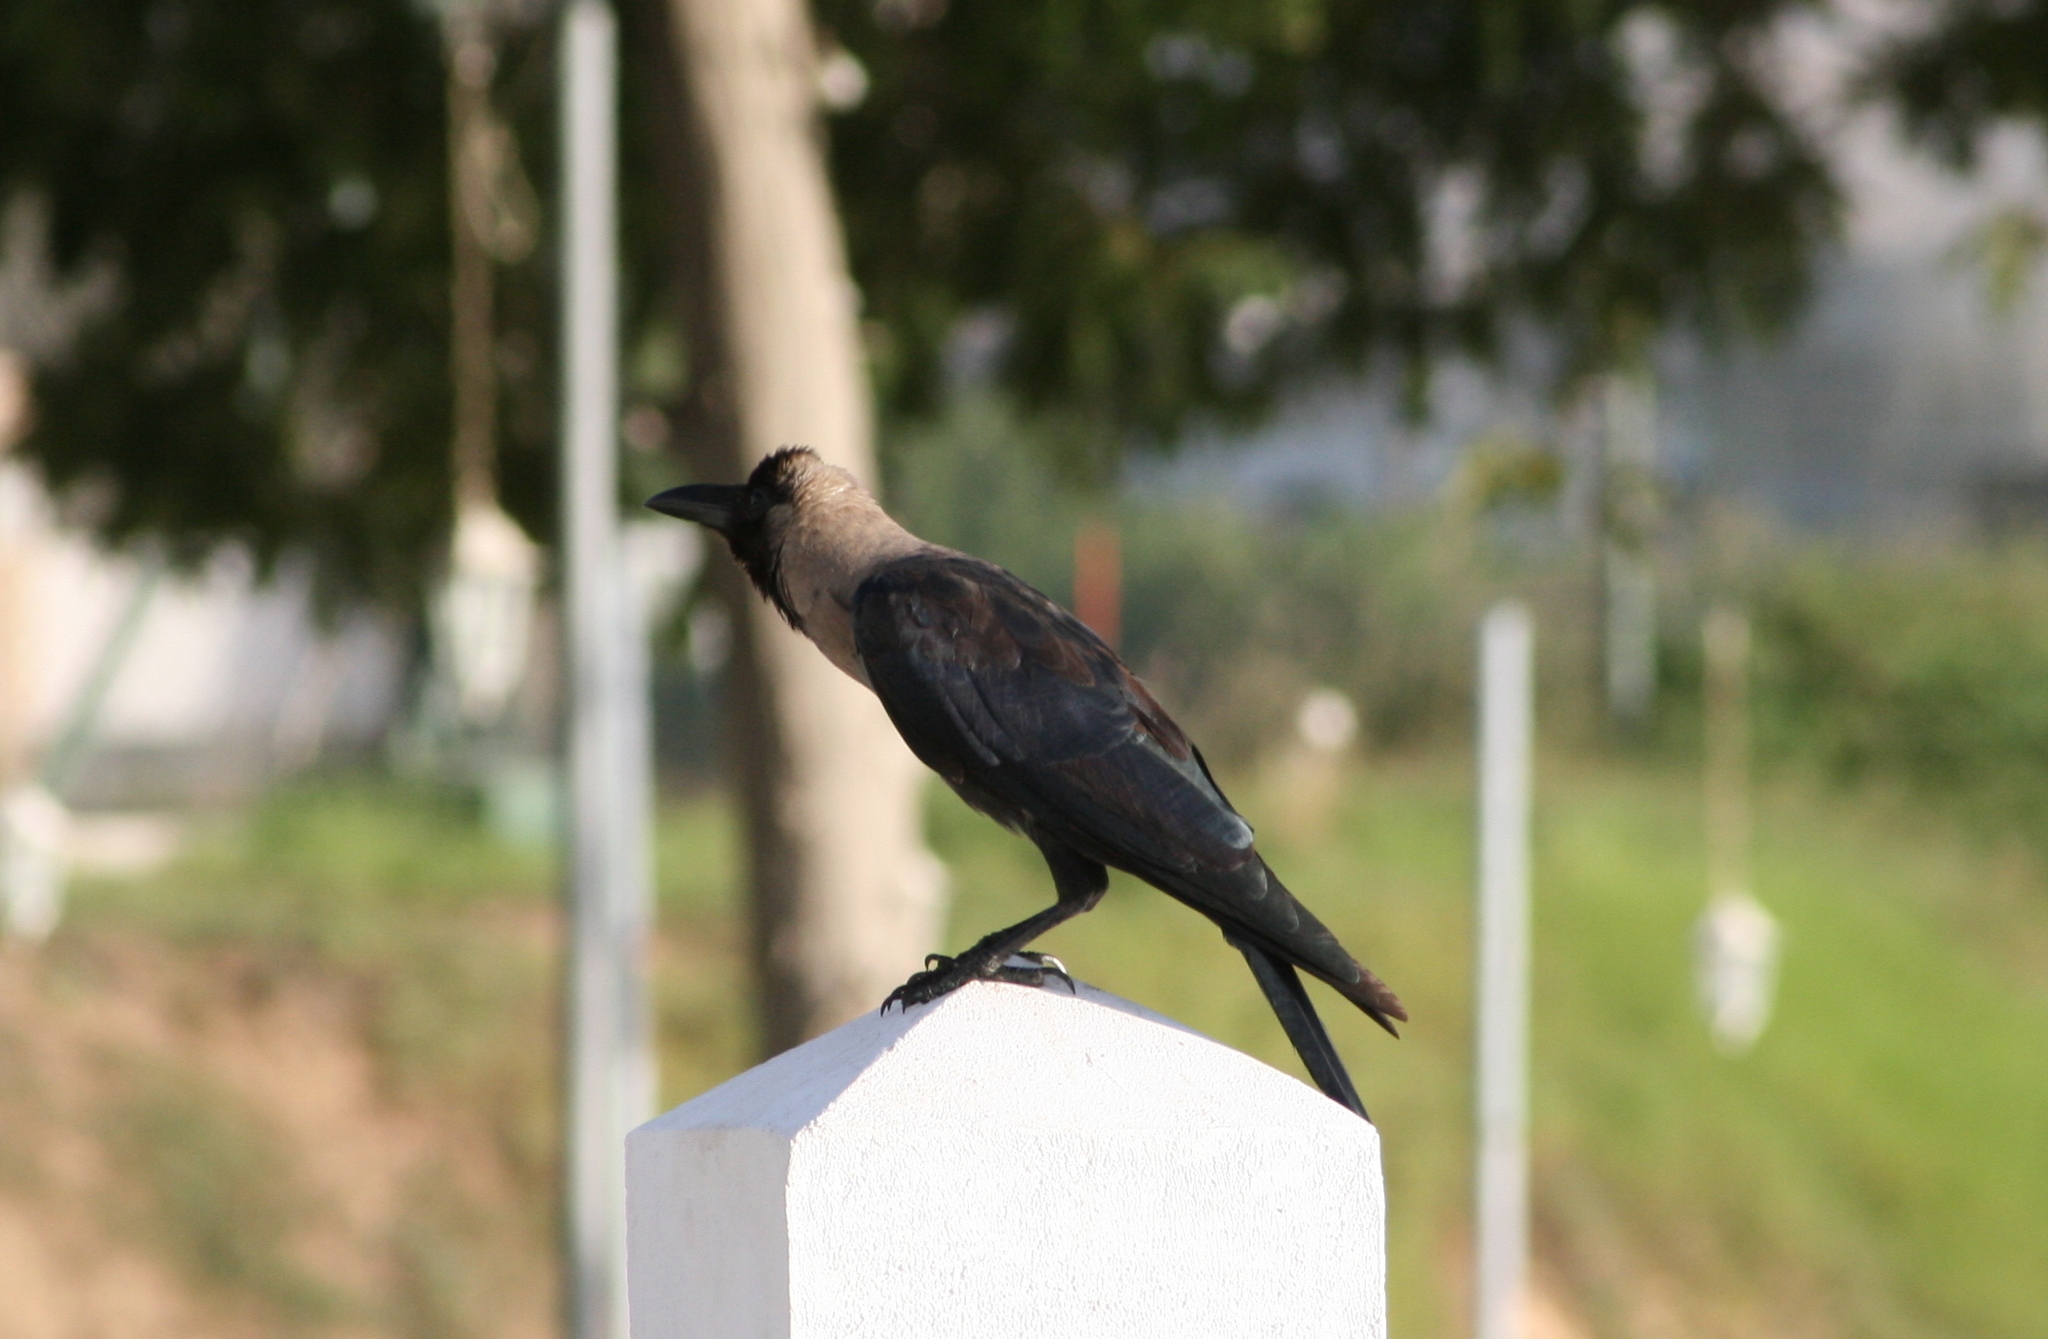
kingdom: Animalia
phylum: Chordata
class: Aves
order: Passeriformes
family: Corvidae
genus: Corvus
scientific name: Corvus splendens
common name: House crow
